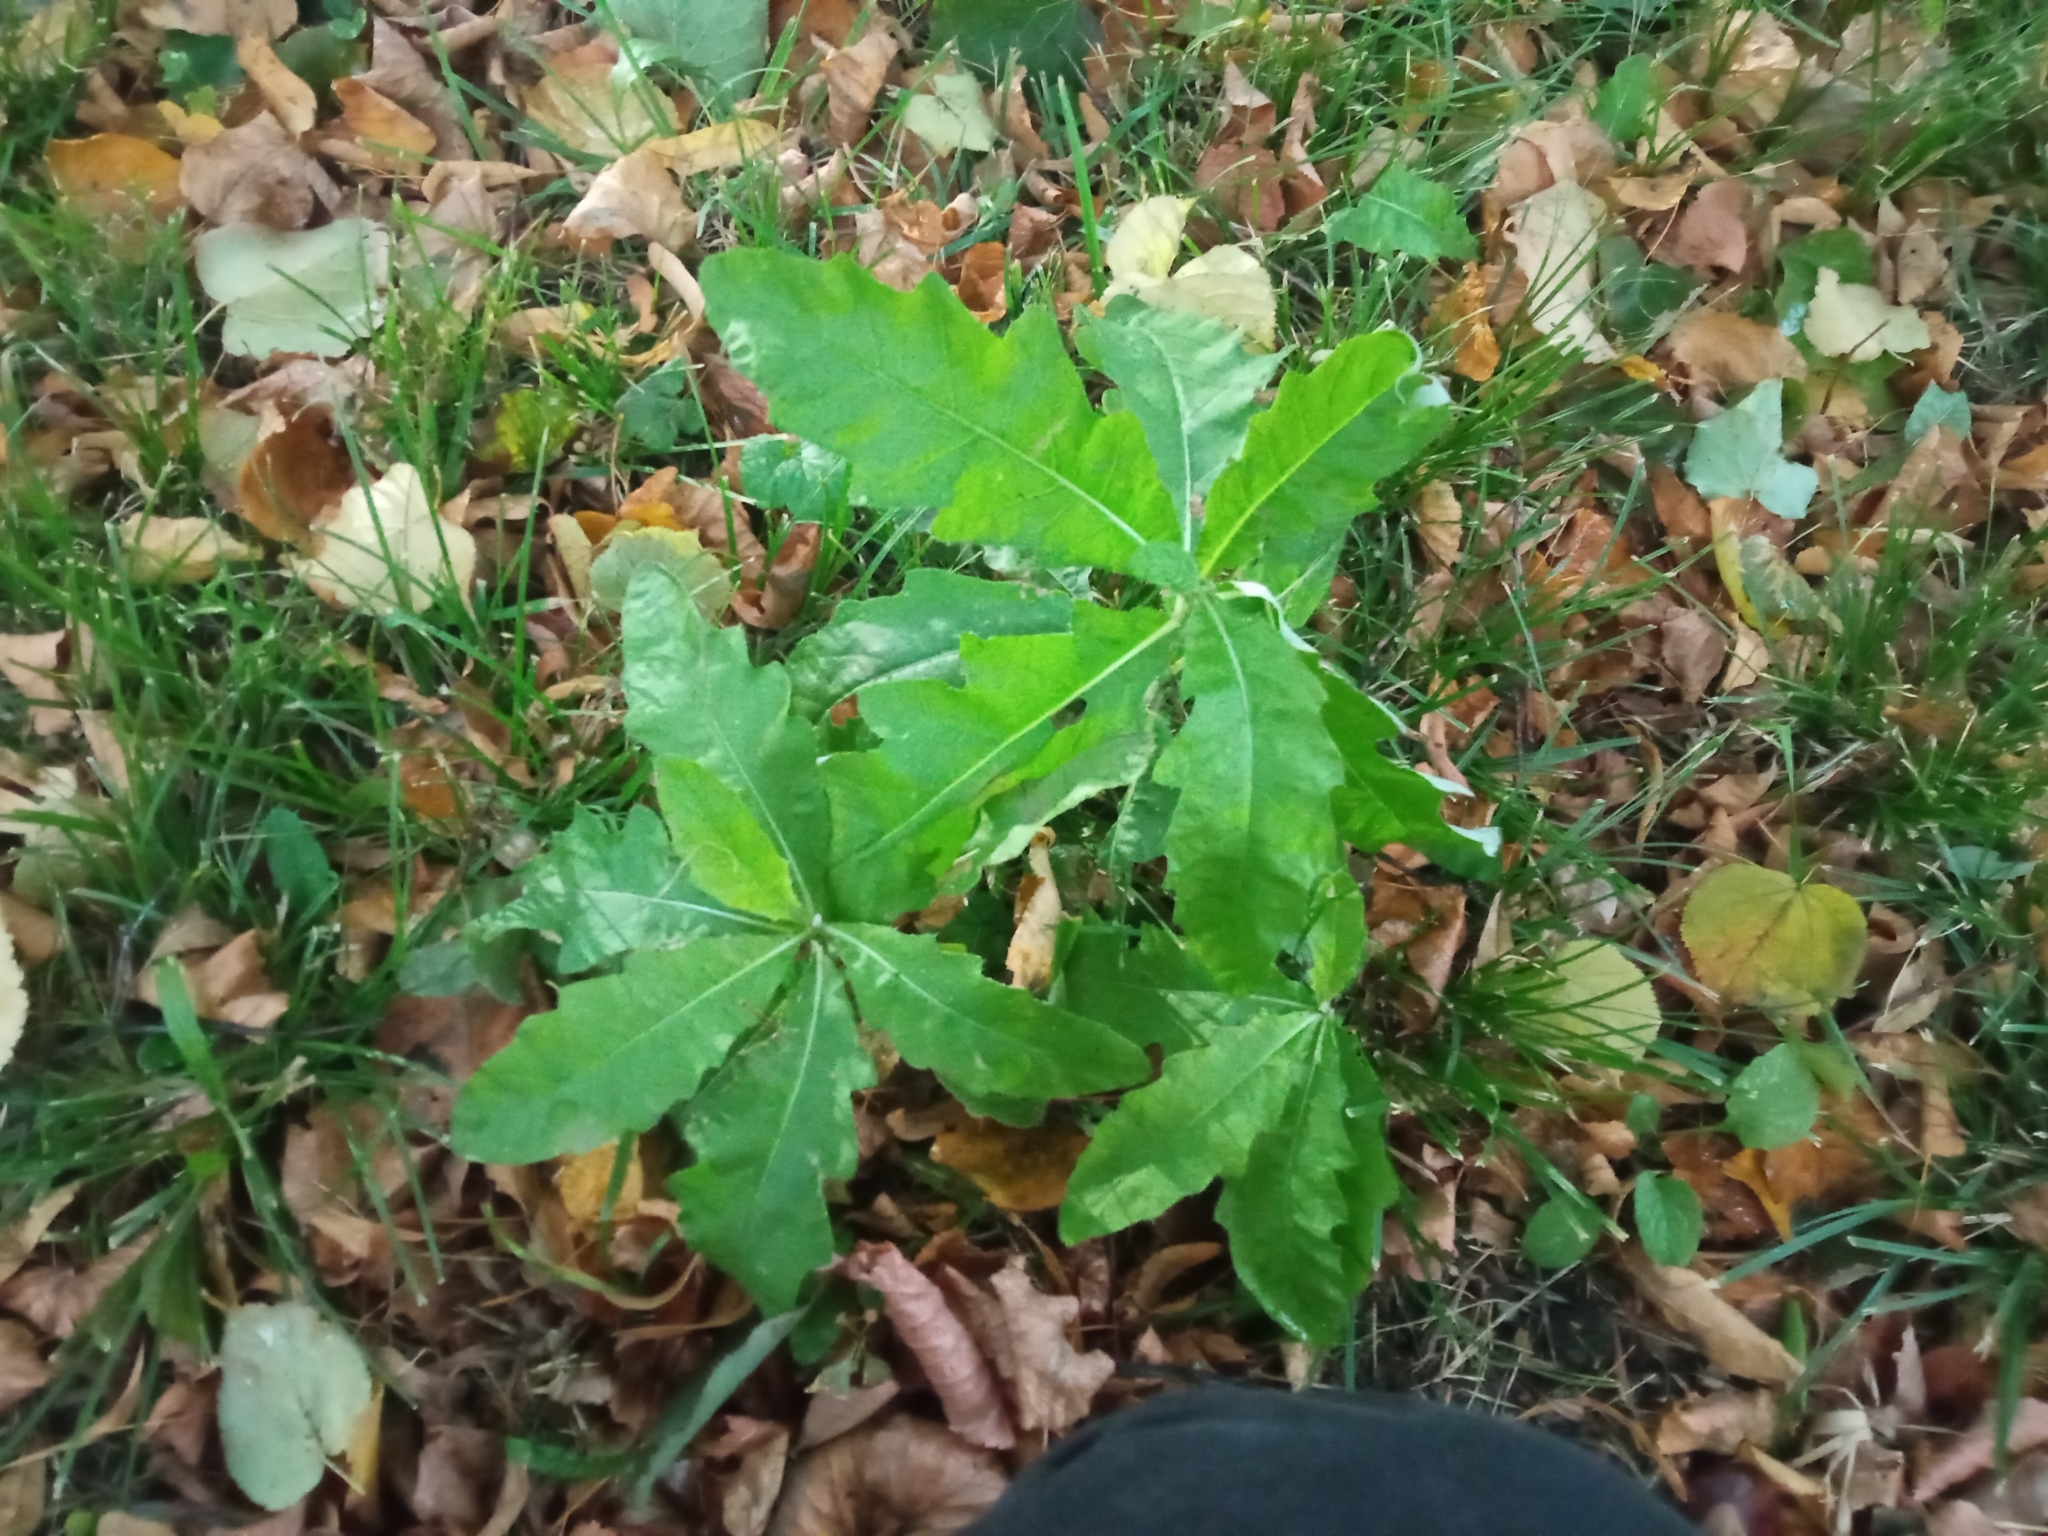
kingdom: Plantae
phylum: Tracheophyta
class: Magnoliopsida
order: Asterales
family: Asteraceae
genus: Cirsium
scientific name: Cirsium arvense
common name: Creeping thistle
